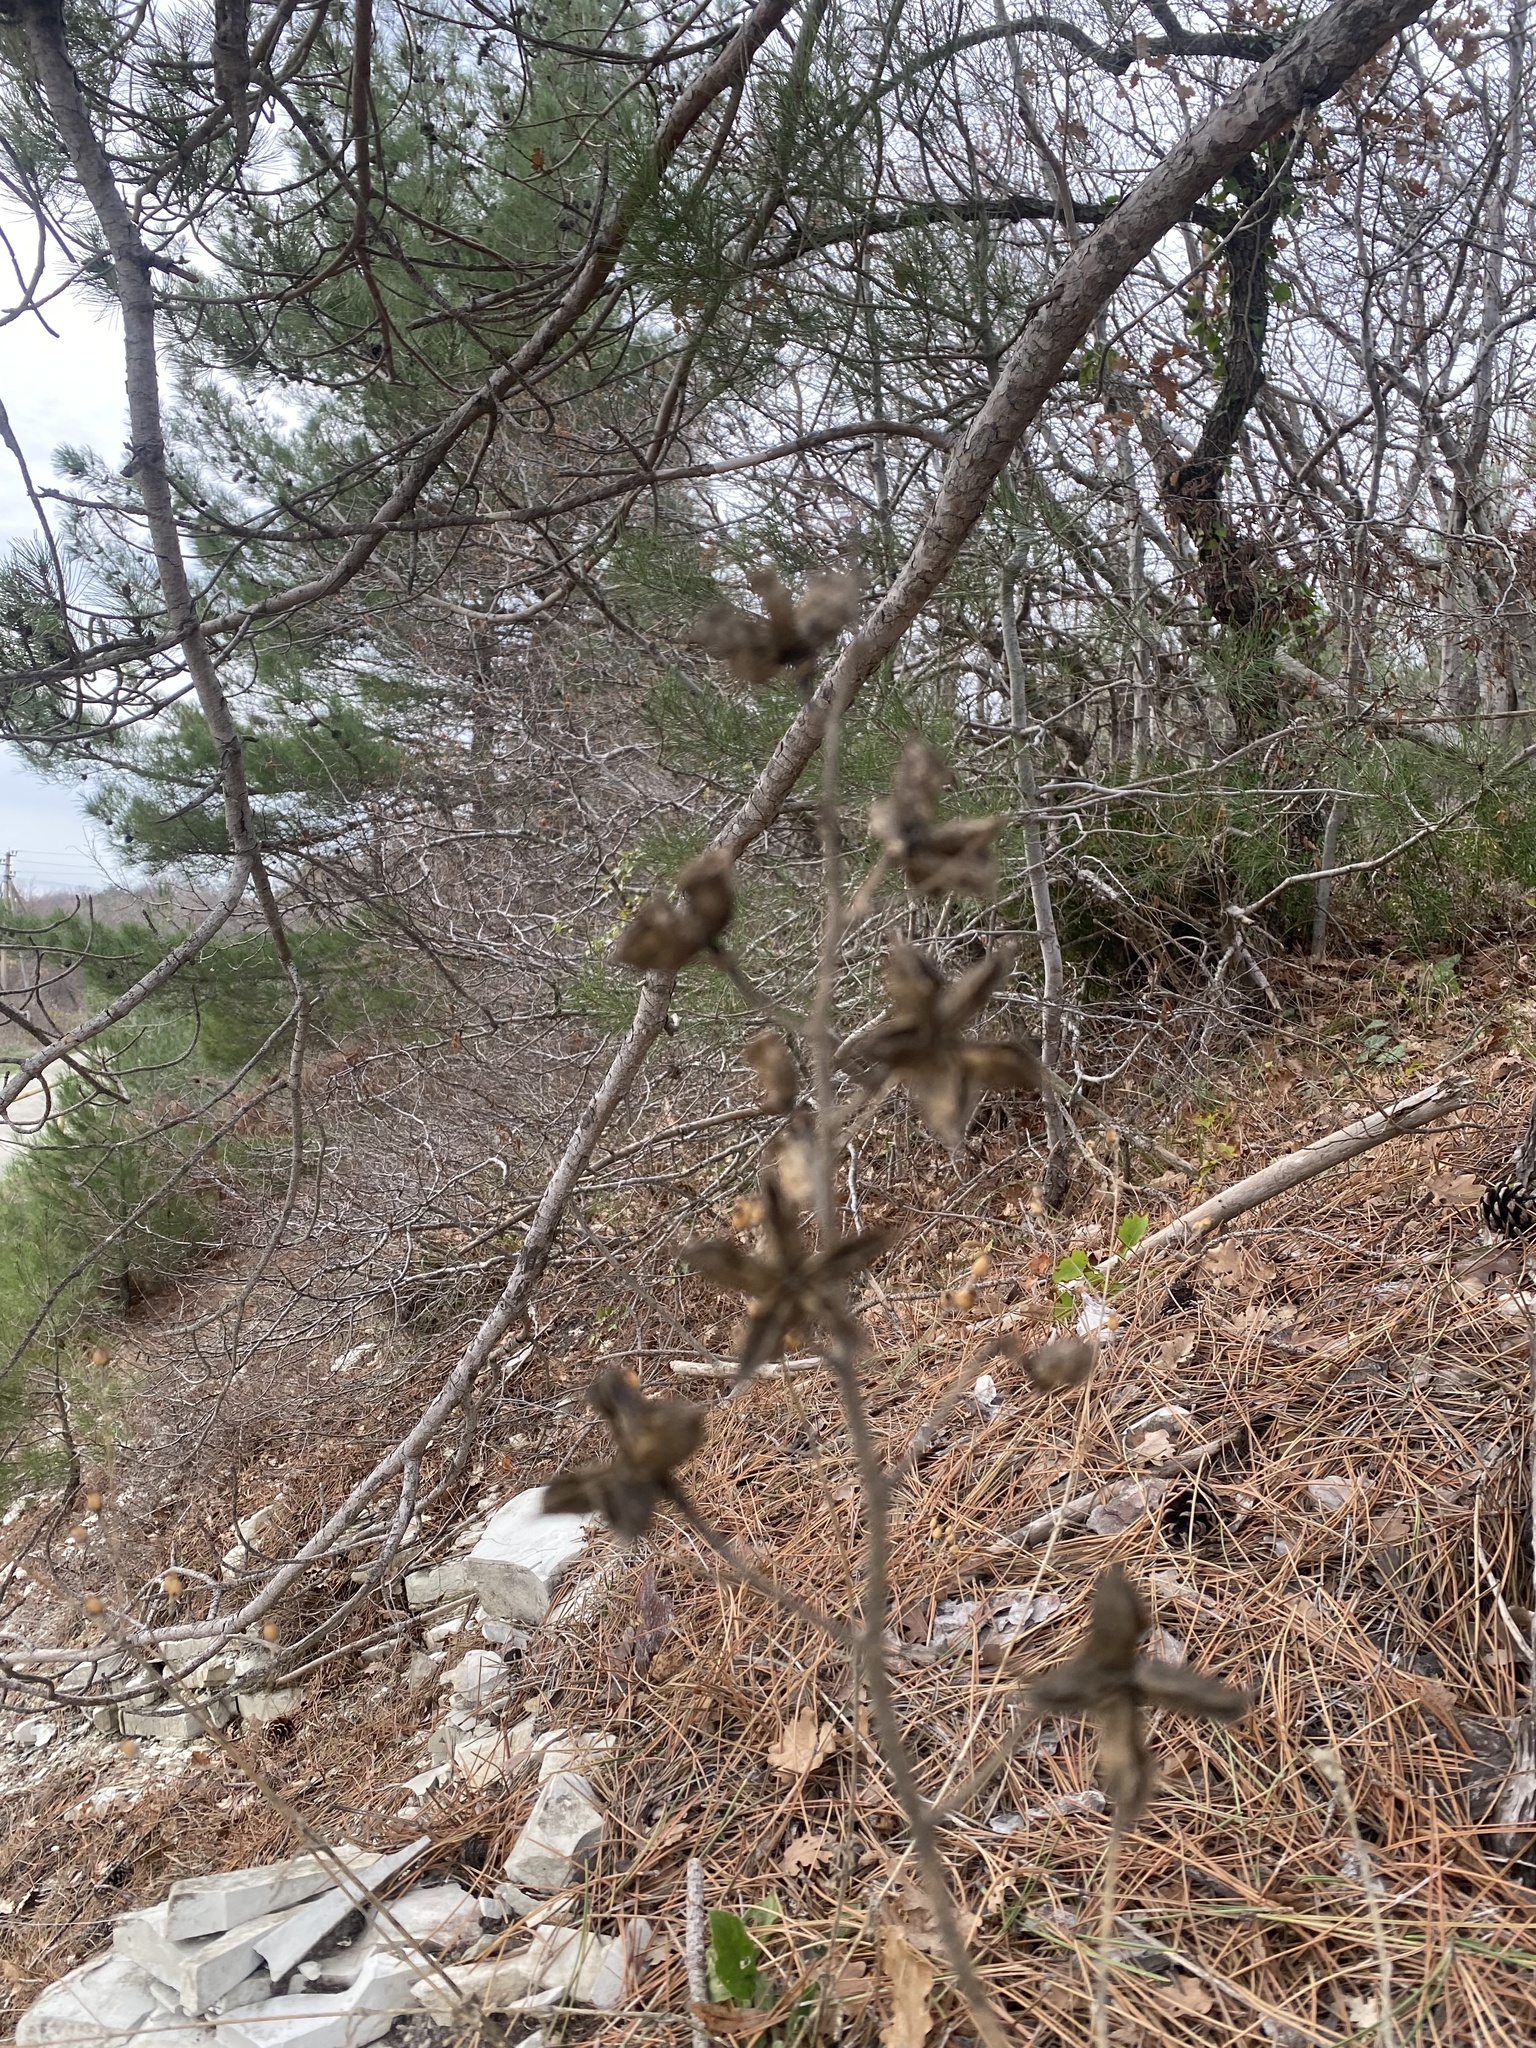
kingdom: Plantae
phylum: Tracheophyta
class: Magnoliopsida
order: Sapindales
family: Rutaceae
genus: Dictamnus
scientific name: Dictamnus albus
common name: Gasplant
